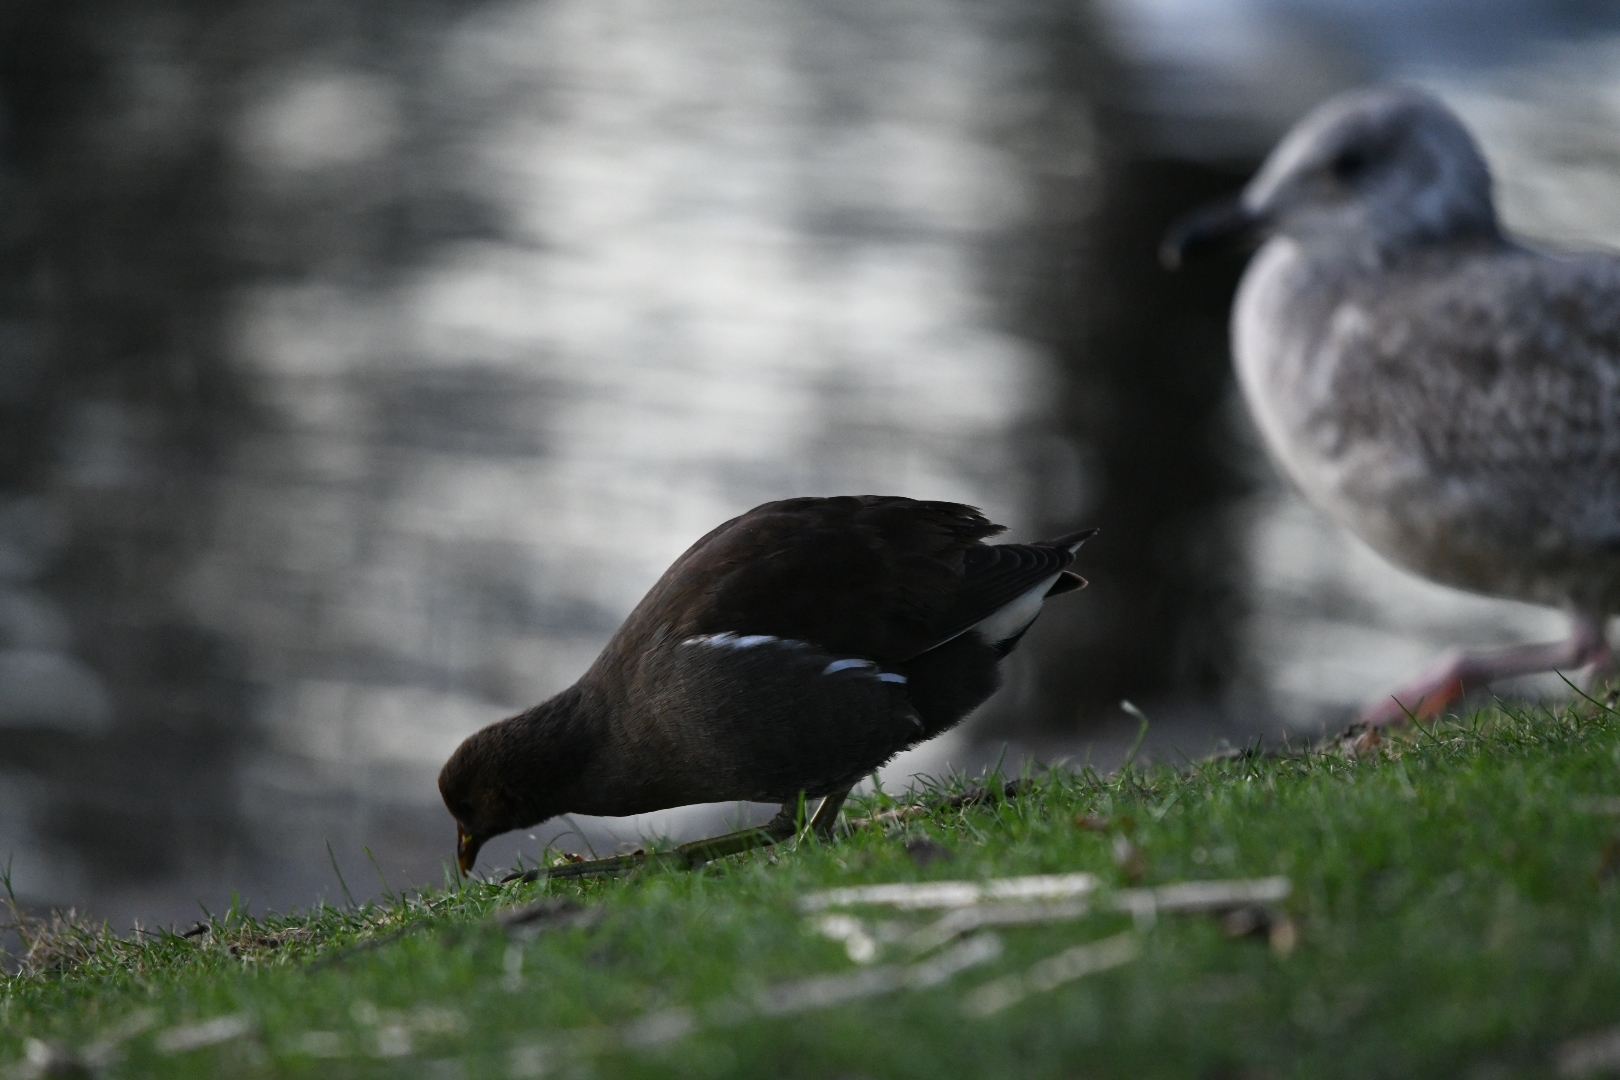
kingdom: Animalia
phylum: Chordata
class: Aves
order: Gruiformes
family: Rallidae
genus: Gallinula
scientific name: Gallinula chloropus
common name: Common moorhen
